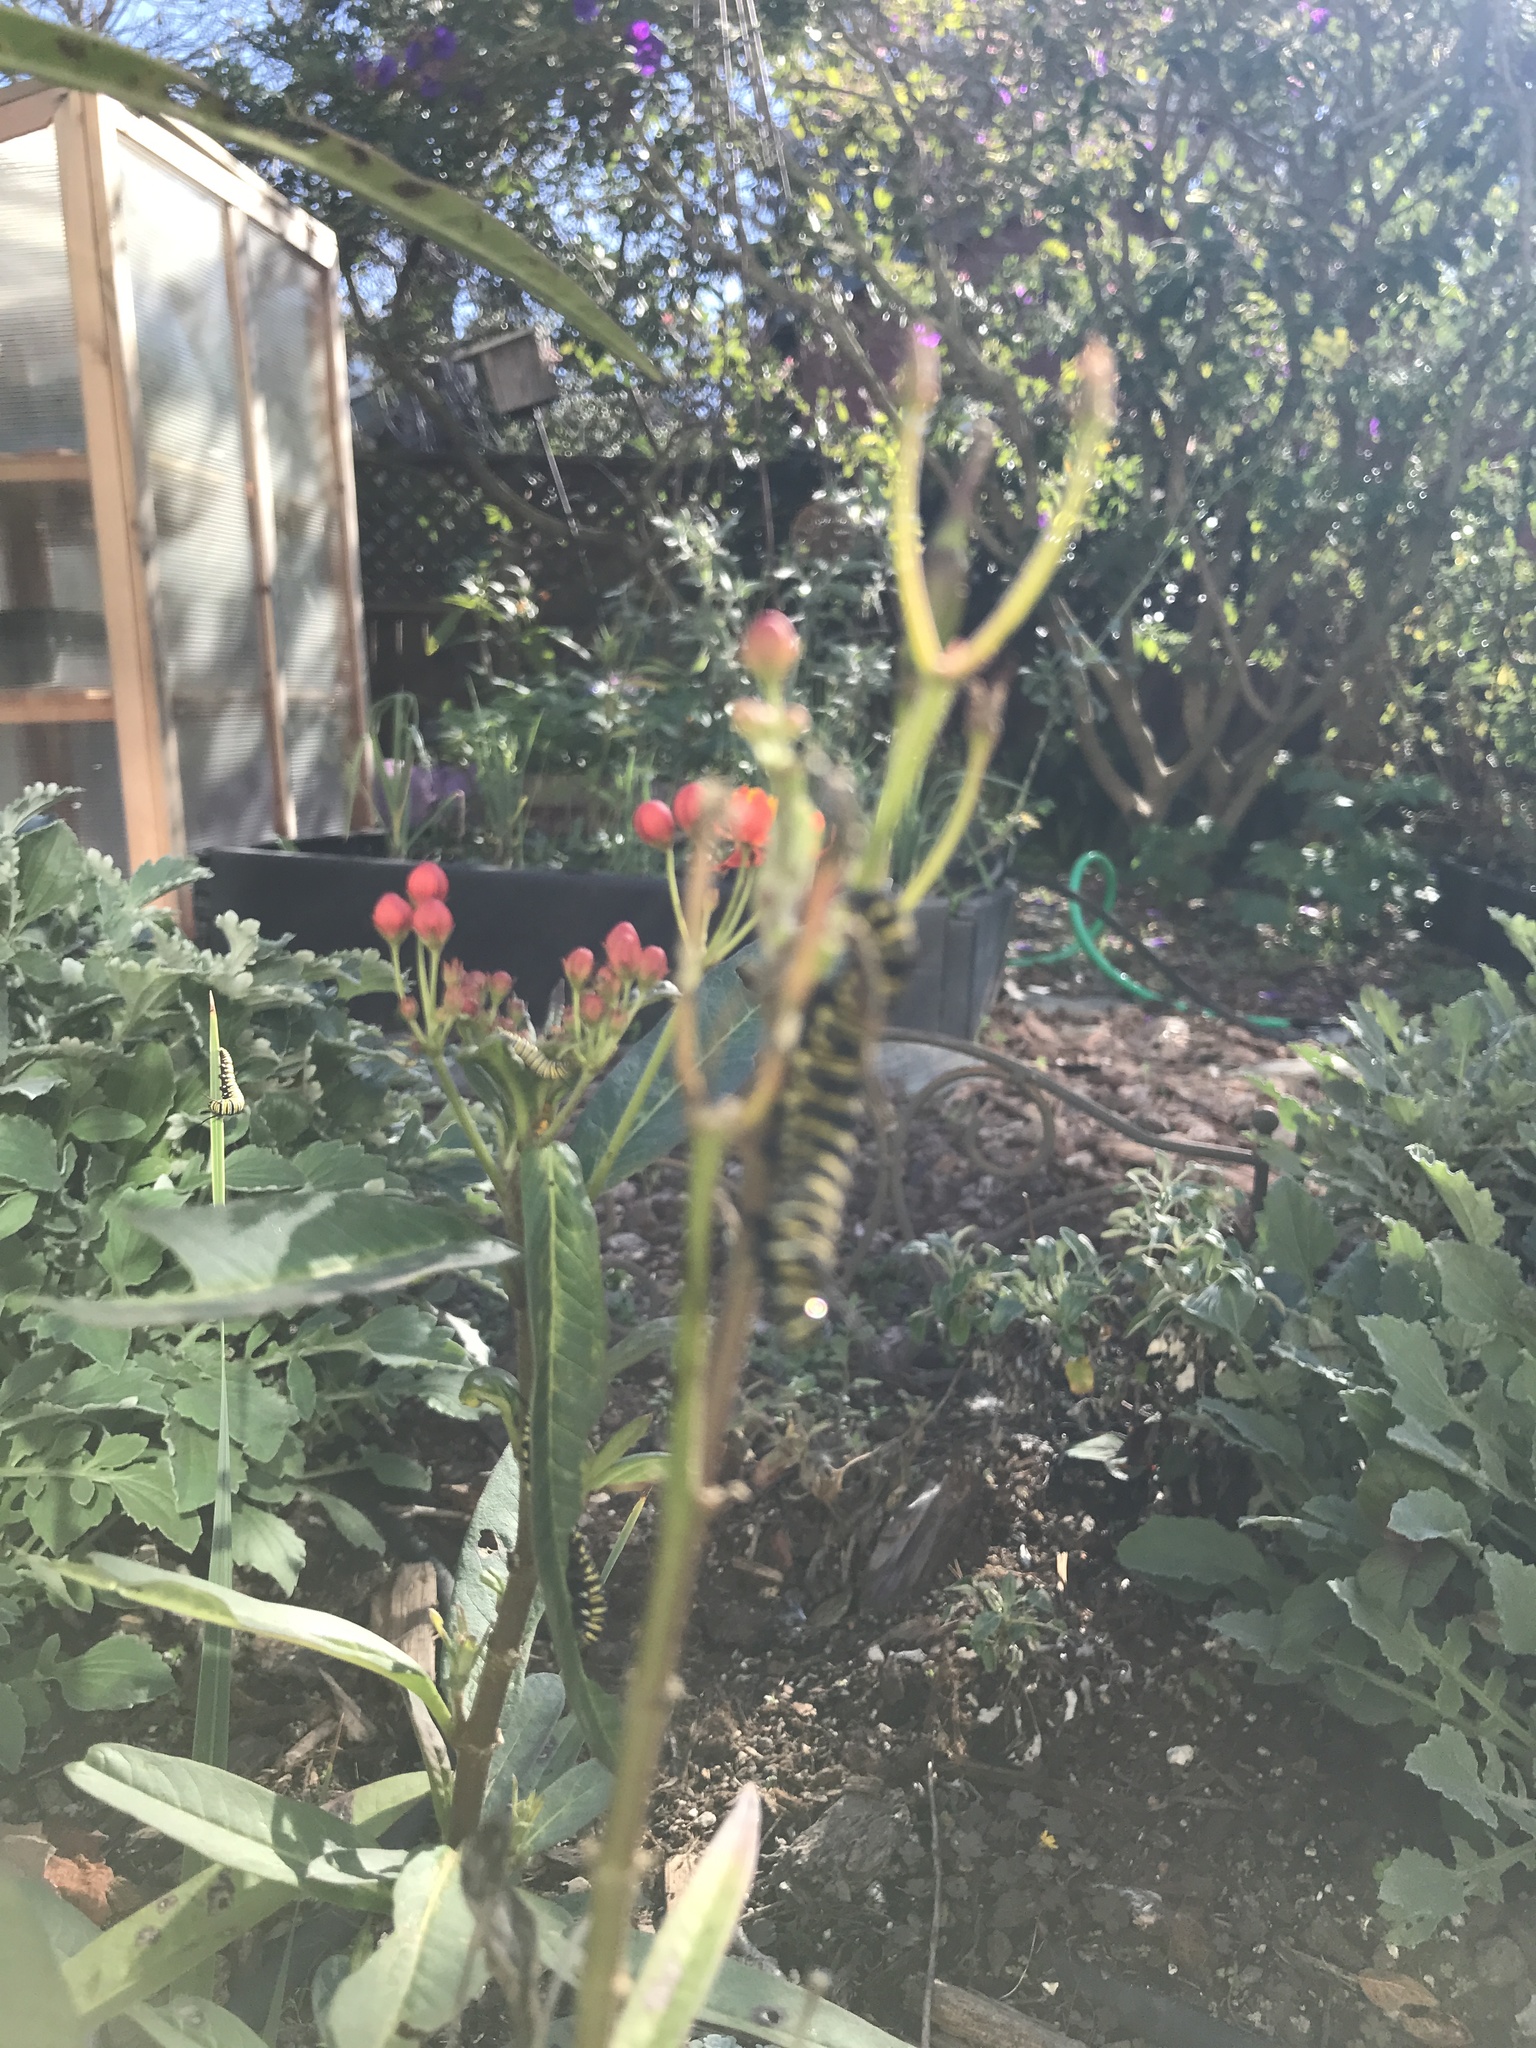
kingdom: Animalia
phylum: Arthropoda
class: Insecta
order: Lepidoptera
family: Nymphalidae
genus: Danaus
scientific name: Danaus plexippus
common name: Monarch
